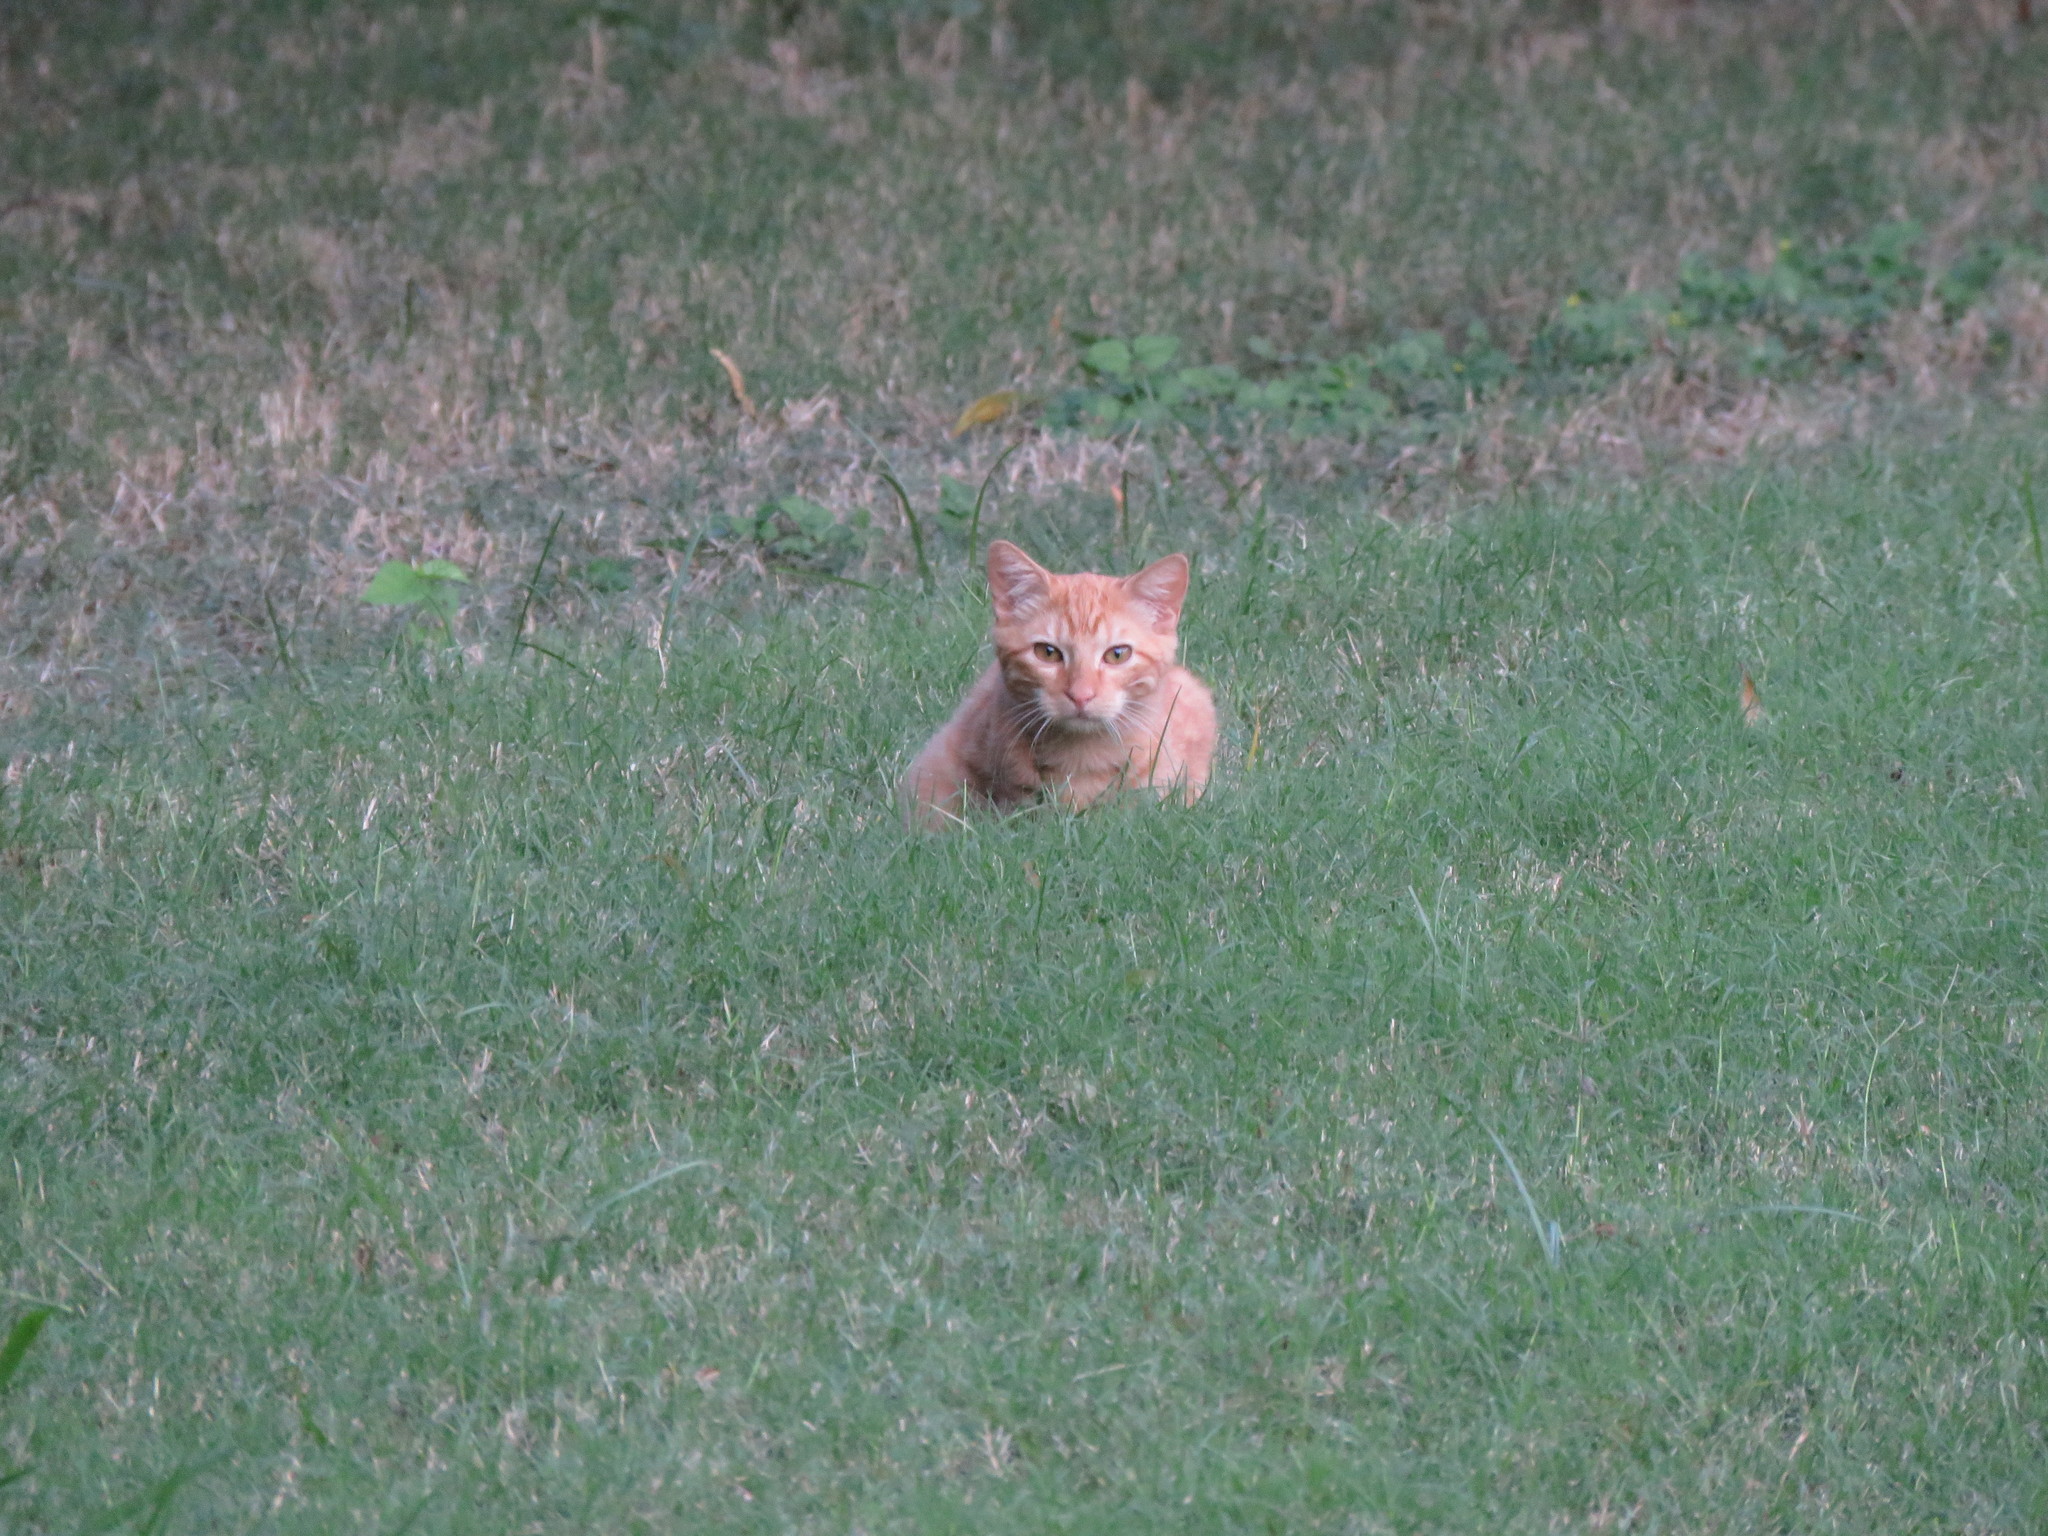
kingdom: Animalia
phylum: Chordata
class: Mammalia
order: Carnivora
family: Felidae
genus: Felis
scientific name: Felis catus
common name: Domestic cat
